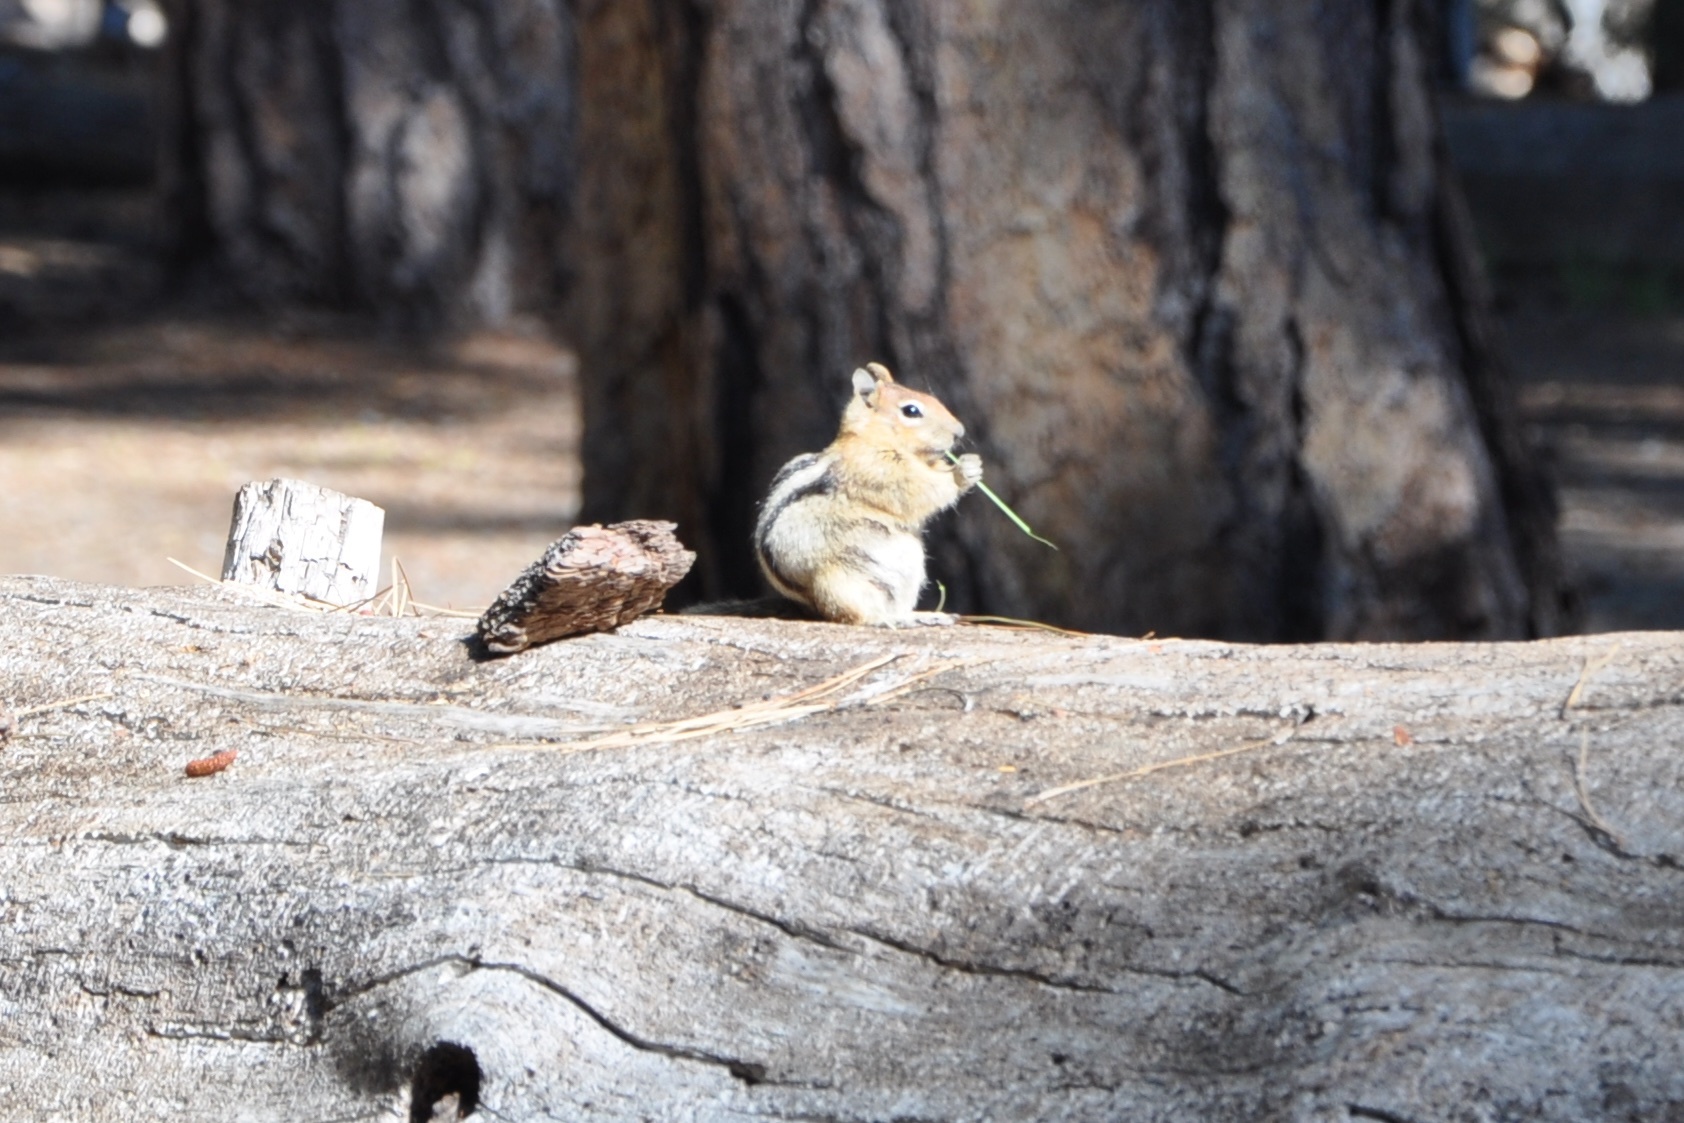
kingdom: Animalia
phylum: Chordata
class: Mammalia
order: Rodentia
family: Sciuridae
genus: Callospermophilus
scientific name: Callospermophilus lateralis
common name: Golden-mantled ground squirrel
